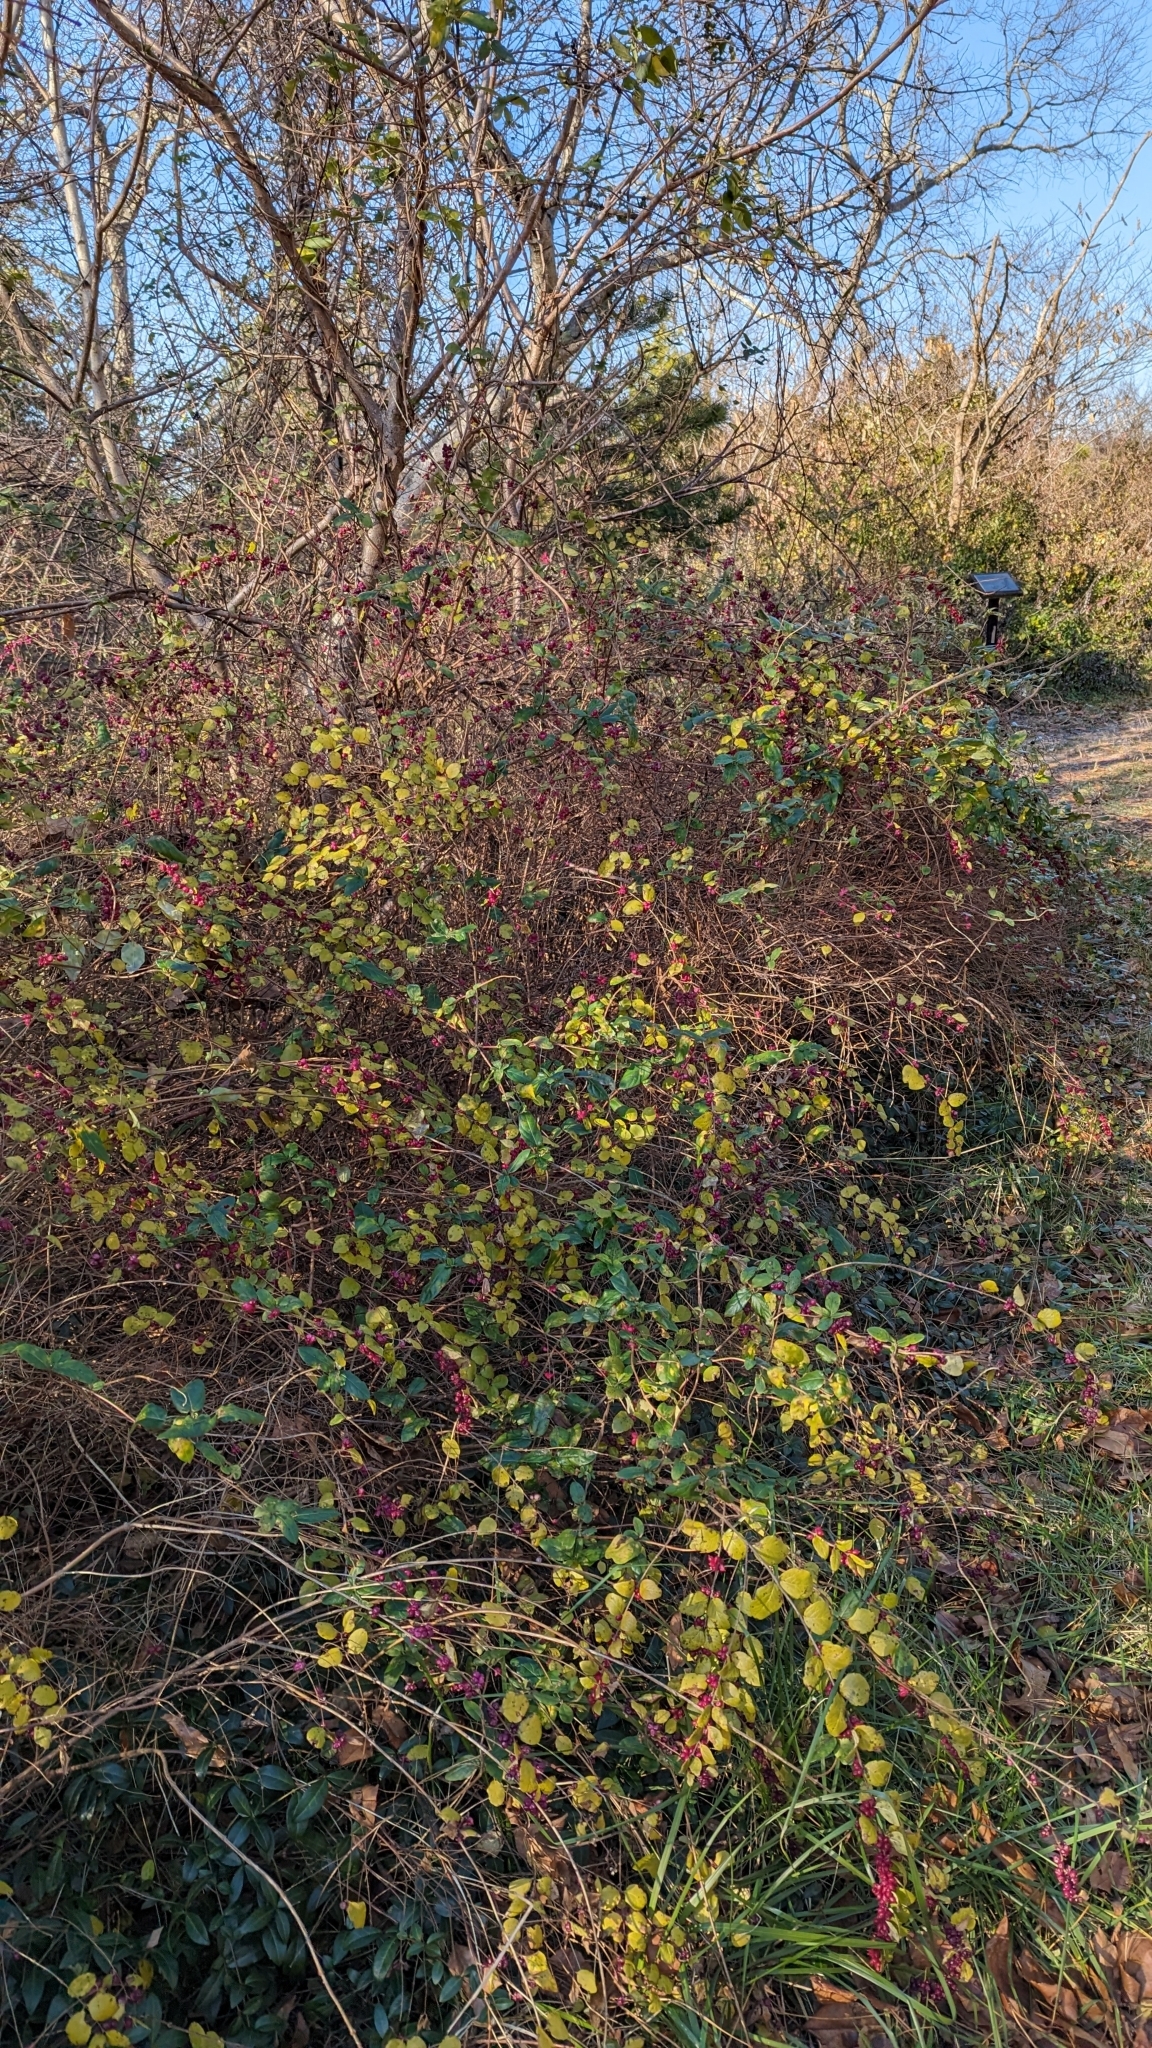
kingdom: Plantae
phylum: Tracheophyta
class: Magnoliopsida
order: Dipsacales
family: Caprifoliaceae
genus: Symphoricarpos
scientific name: Symphoricarpos orbiculatus
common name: Coralberry
